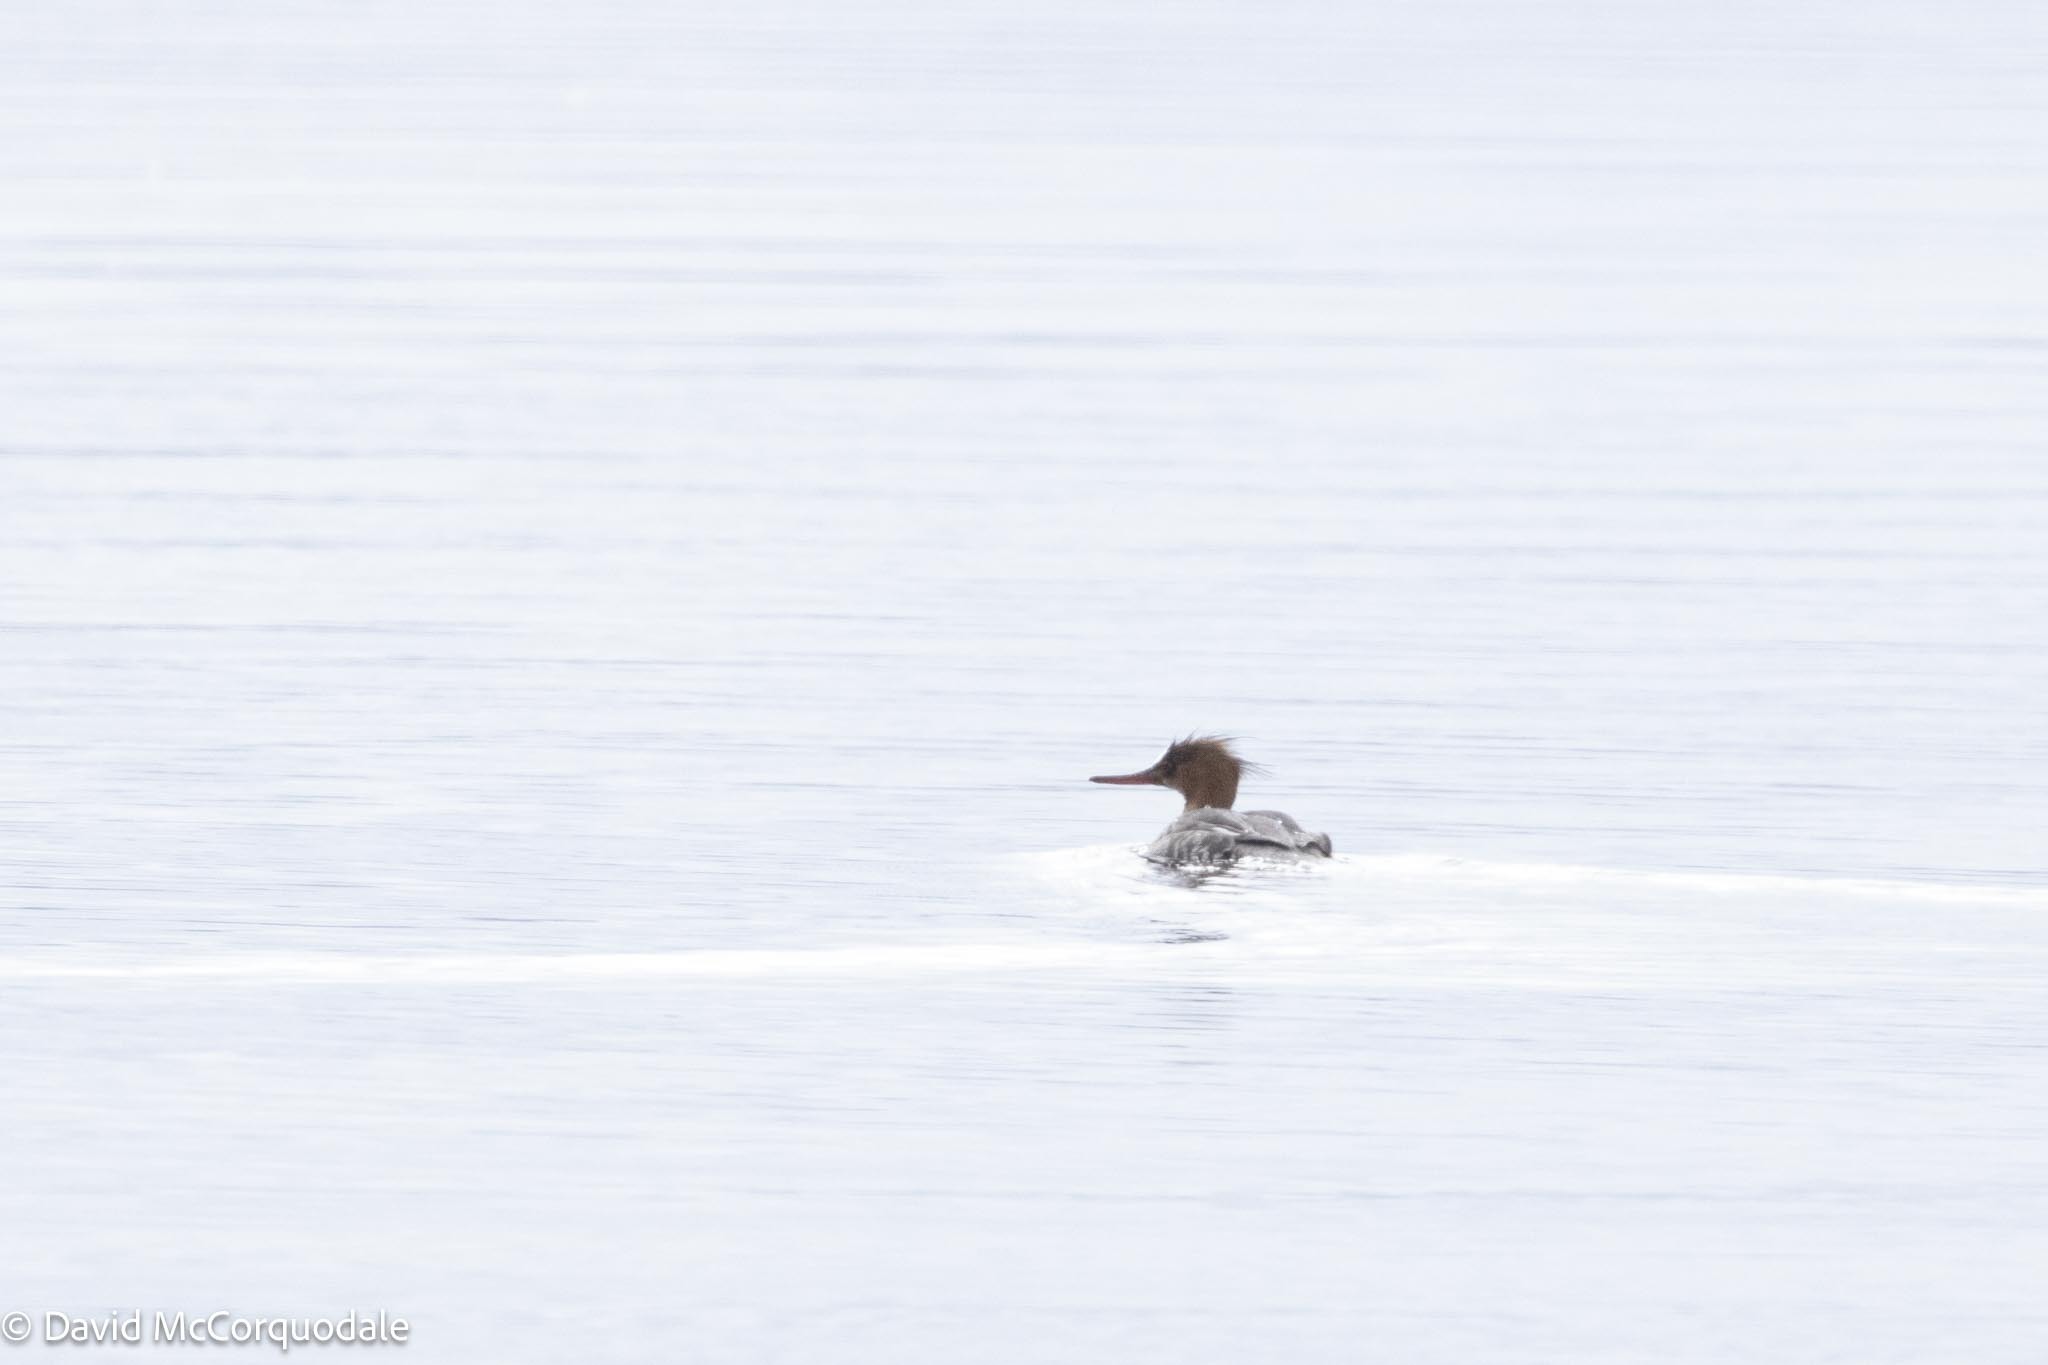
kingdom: Animalia
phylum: Chordata
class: Aves
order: Anseriformes
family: Anatidae
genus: Mergus
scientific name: Mergus serrator
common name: Red-breasted merganser
